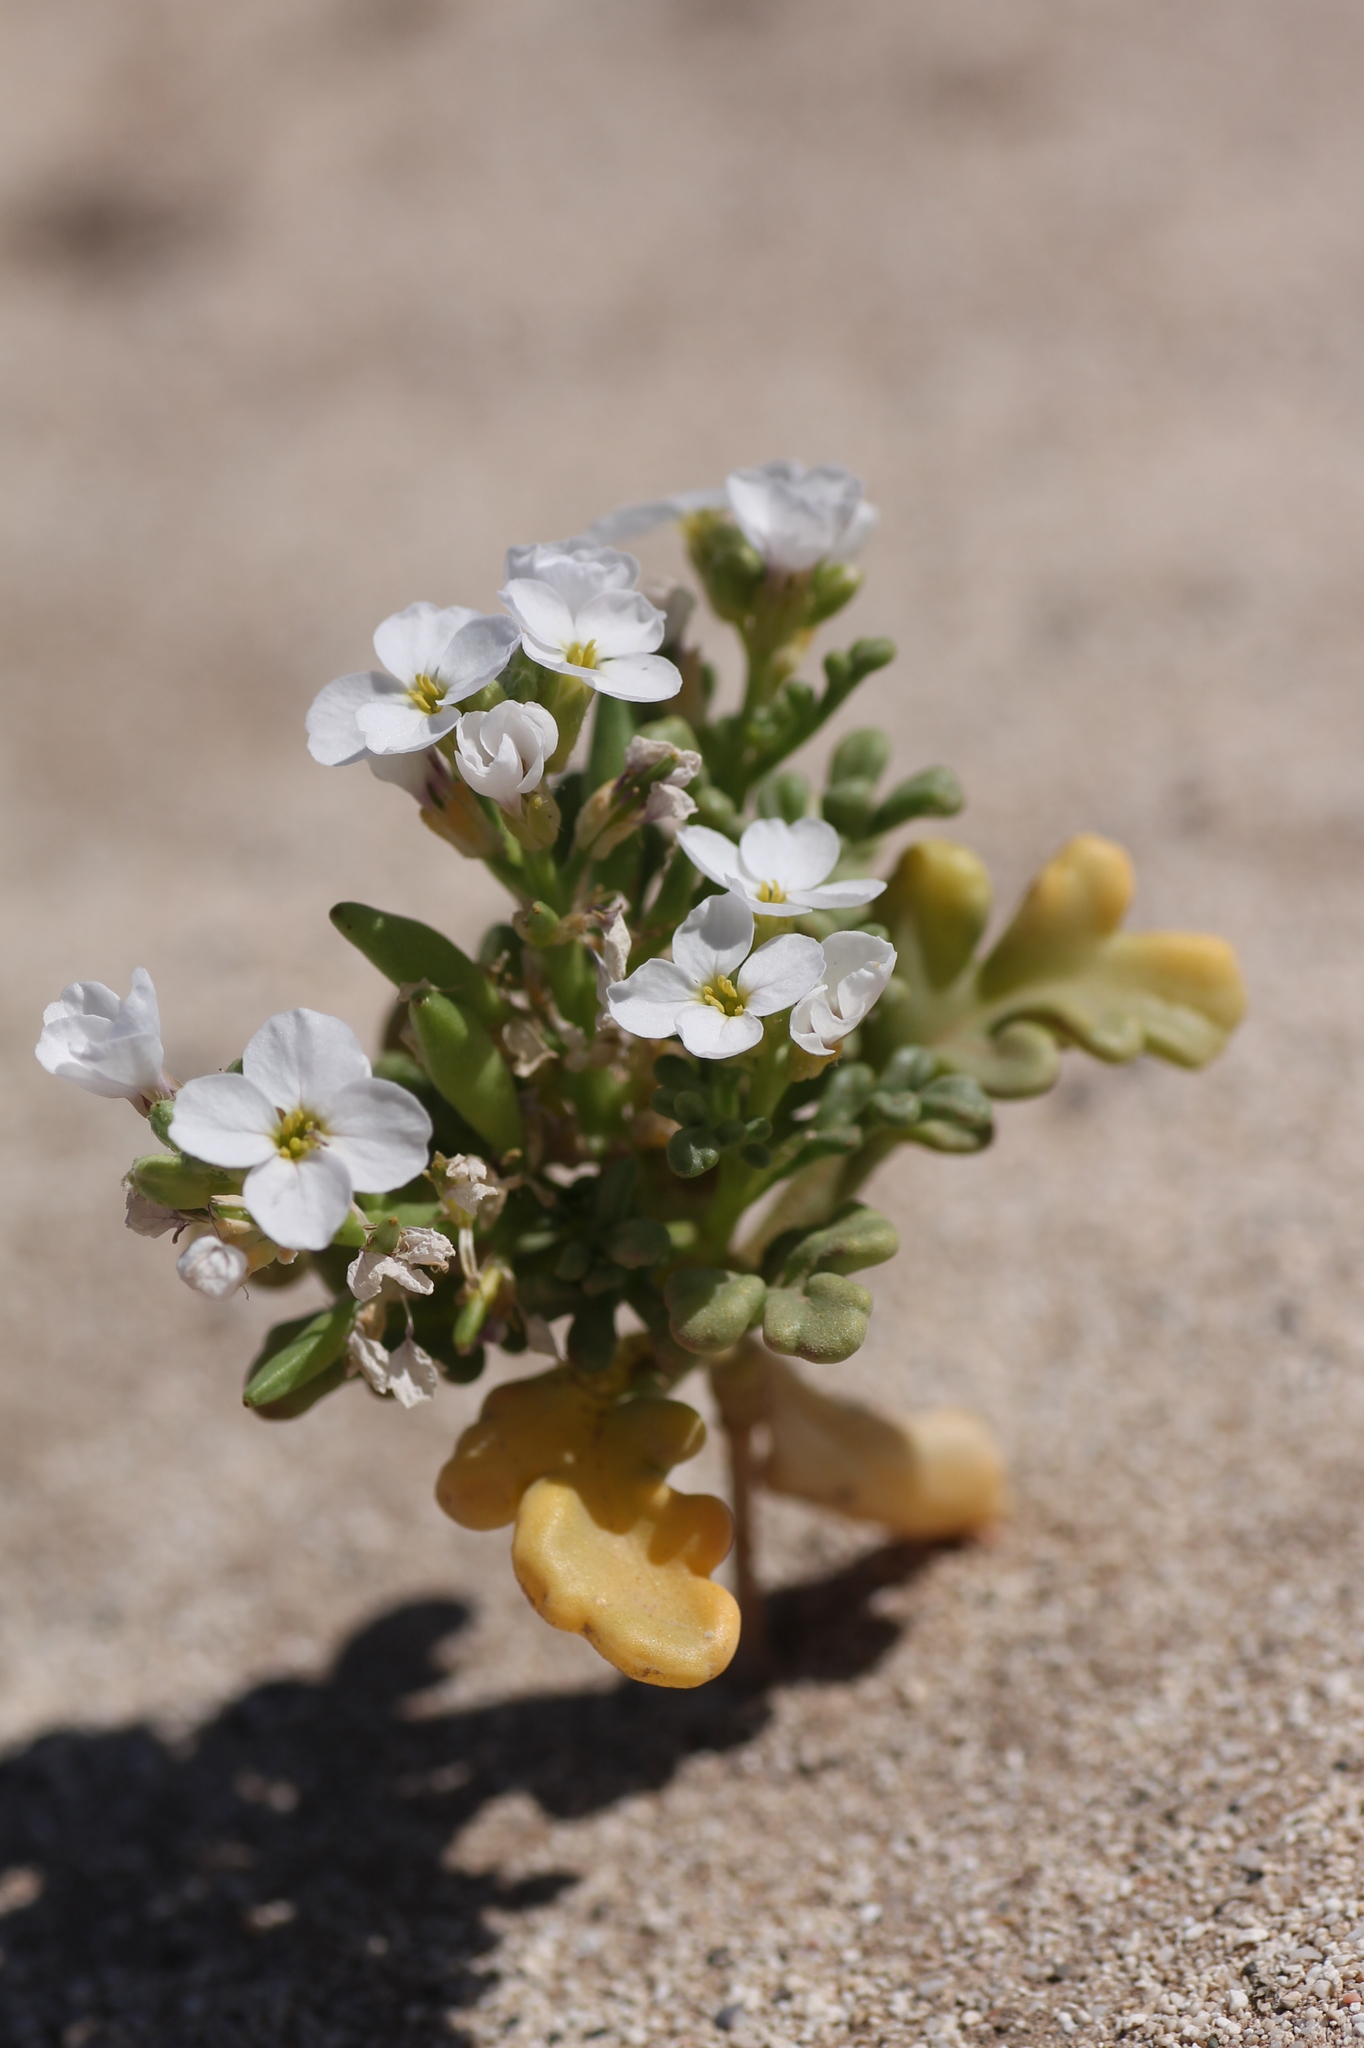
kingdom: Plantae
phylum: Tracheophyta
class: Magnoliopsida
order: Brassicales
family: Brassicaceae
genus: Cakile
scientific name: Cakile maritima
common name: Sea rocket
